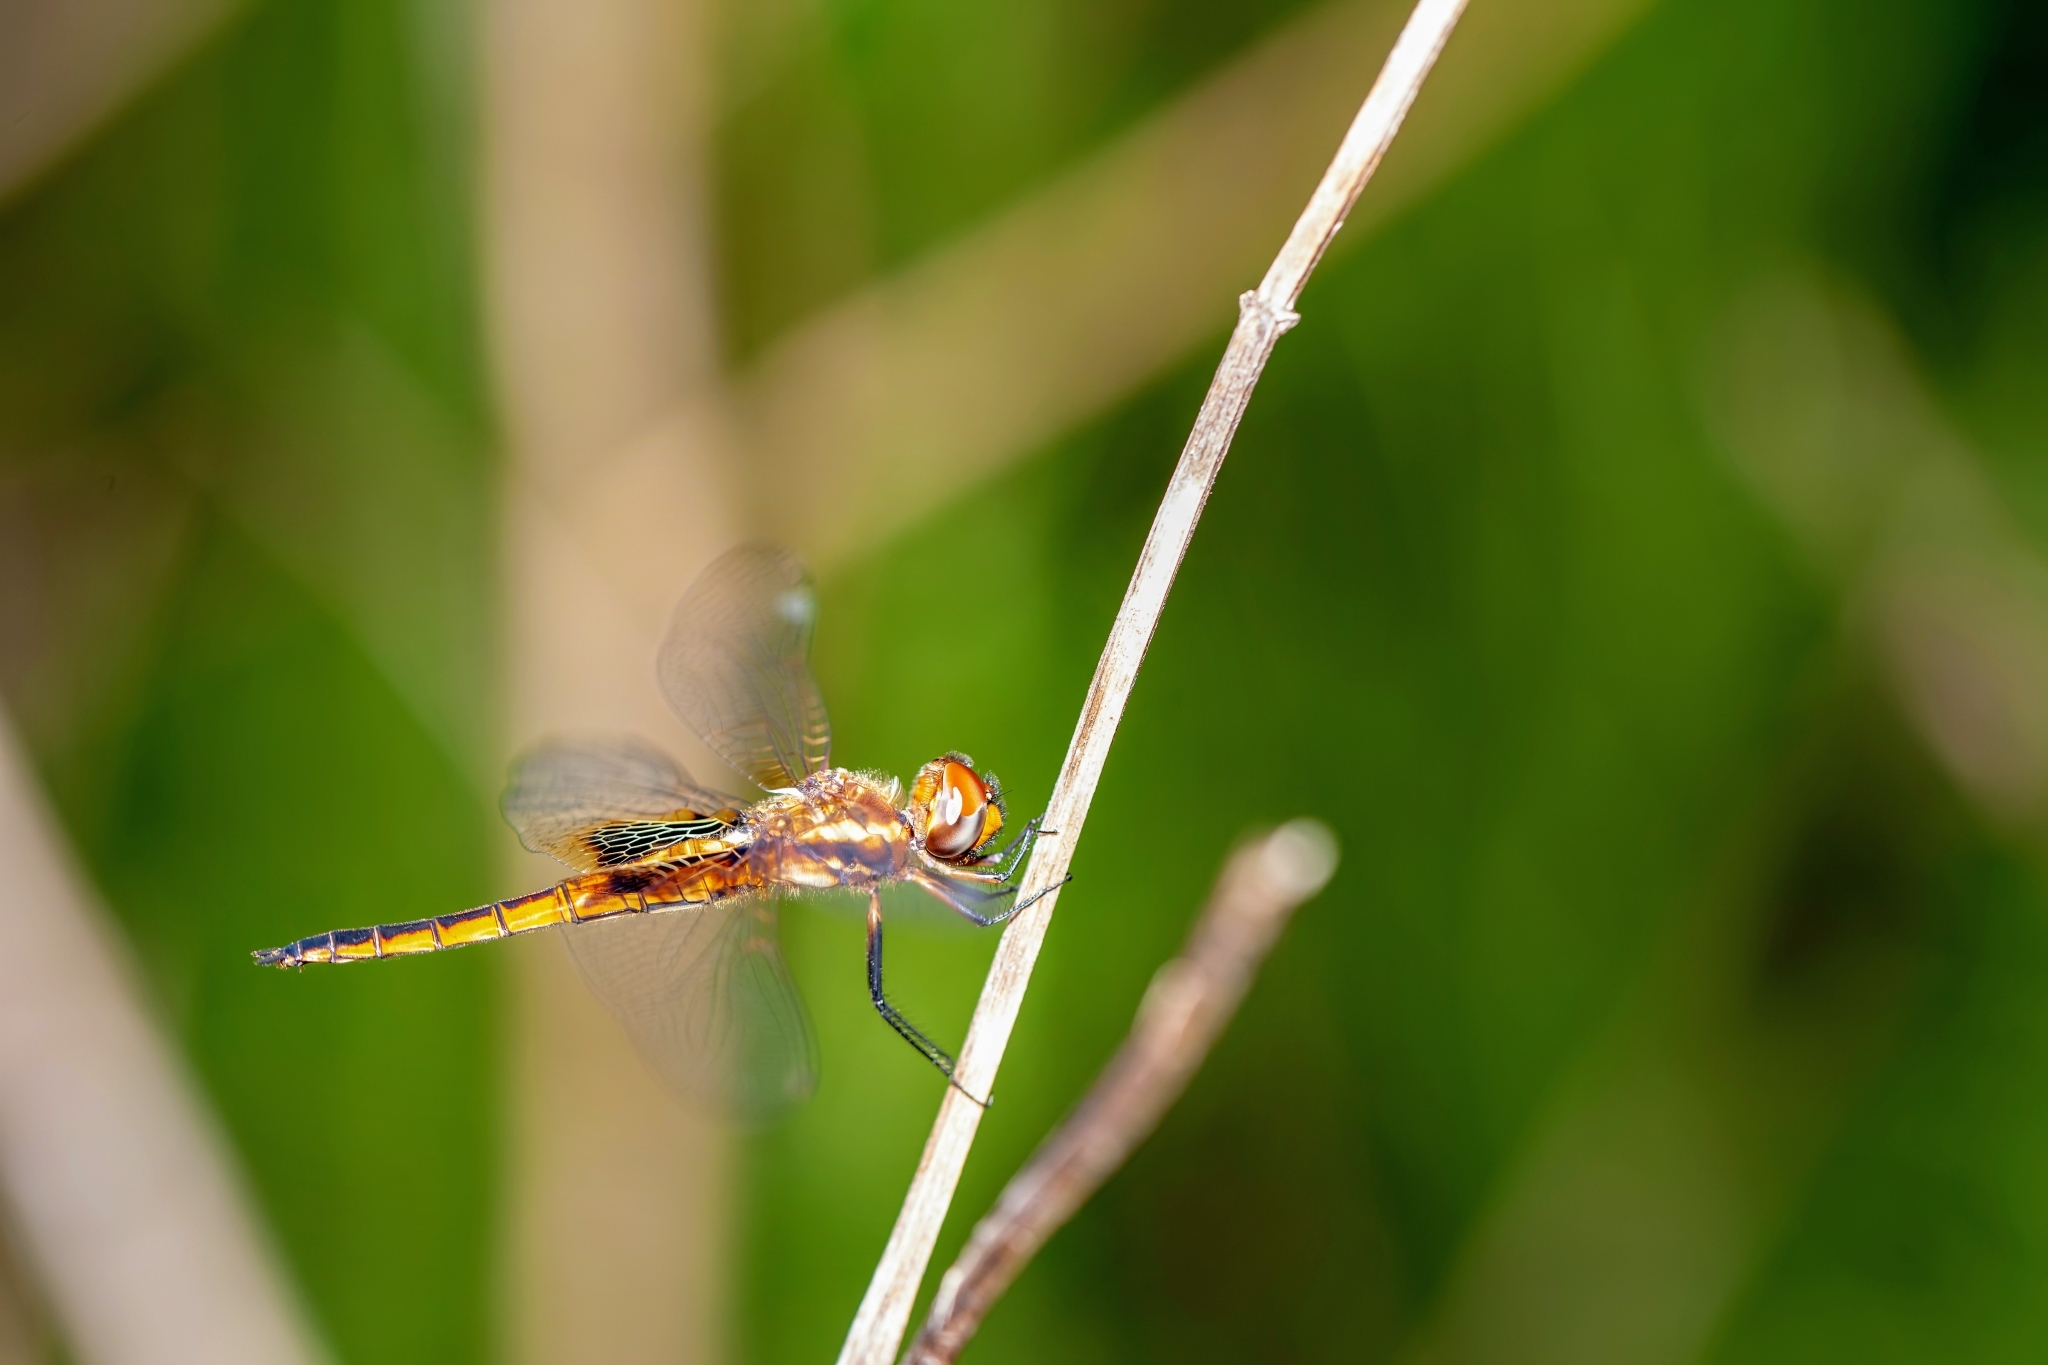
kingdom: Animalia
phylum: Arthropoda
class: Insecta
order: Odonata
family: Libellulidae
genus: Miathyria
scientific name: Miathyria marcella
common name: Hyacinth glider
